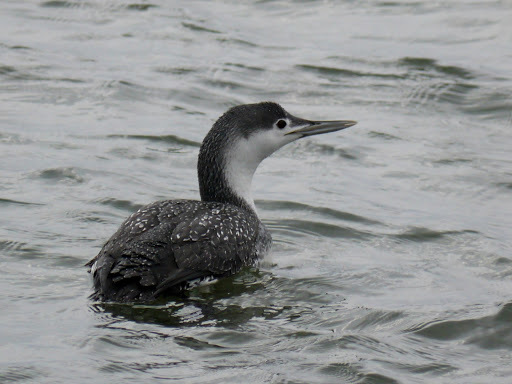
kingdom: Animalia
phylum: Chordata
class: Aves
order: Gaviiformes
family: Gaviidae
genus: Gavia
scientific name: Gavia stellata
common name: Red-throated loon
